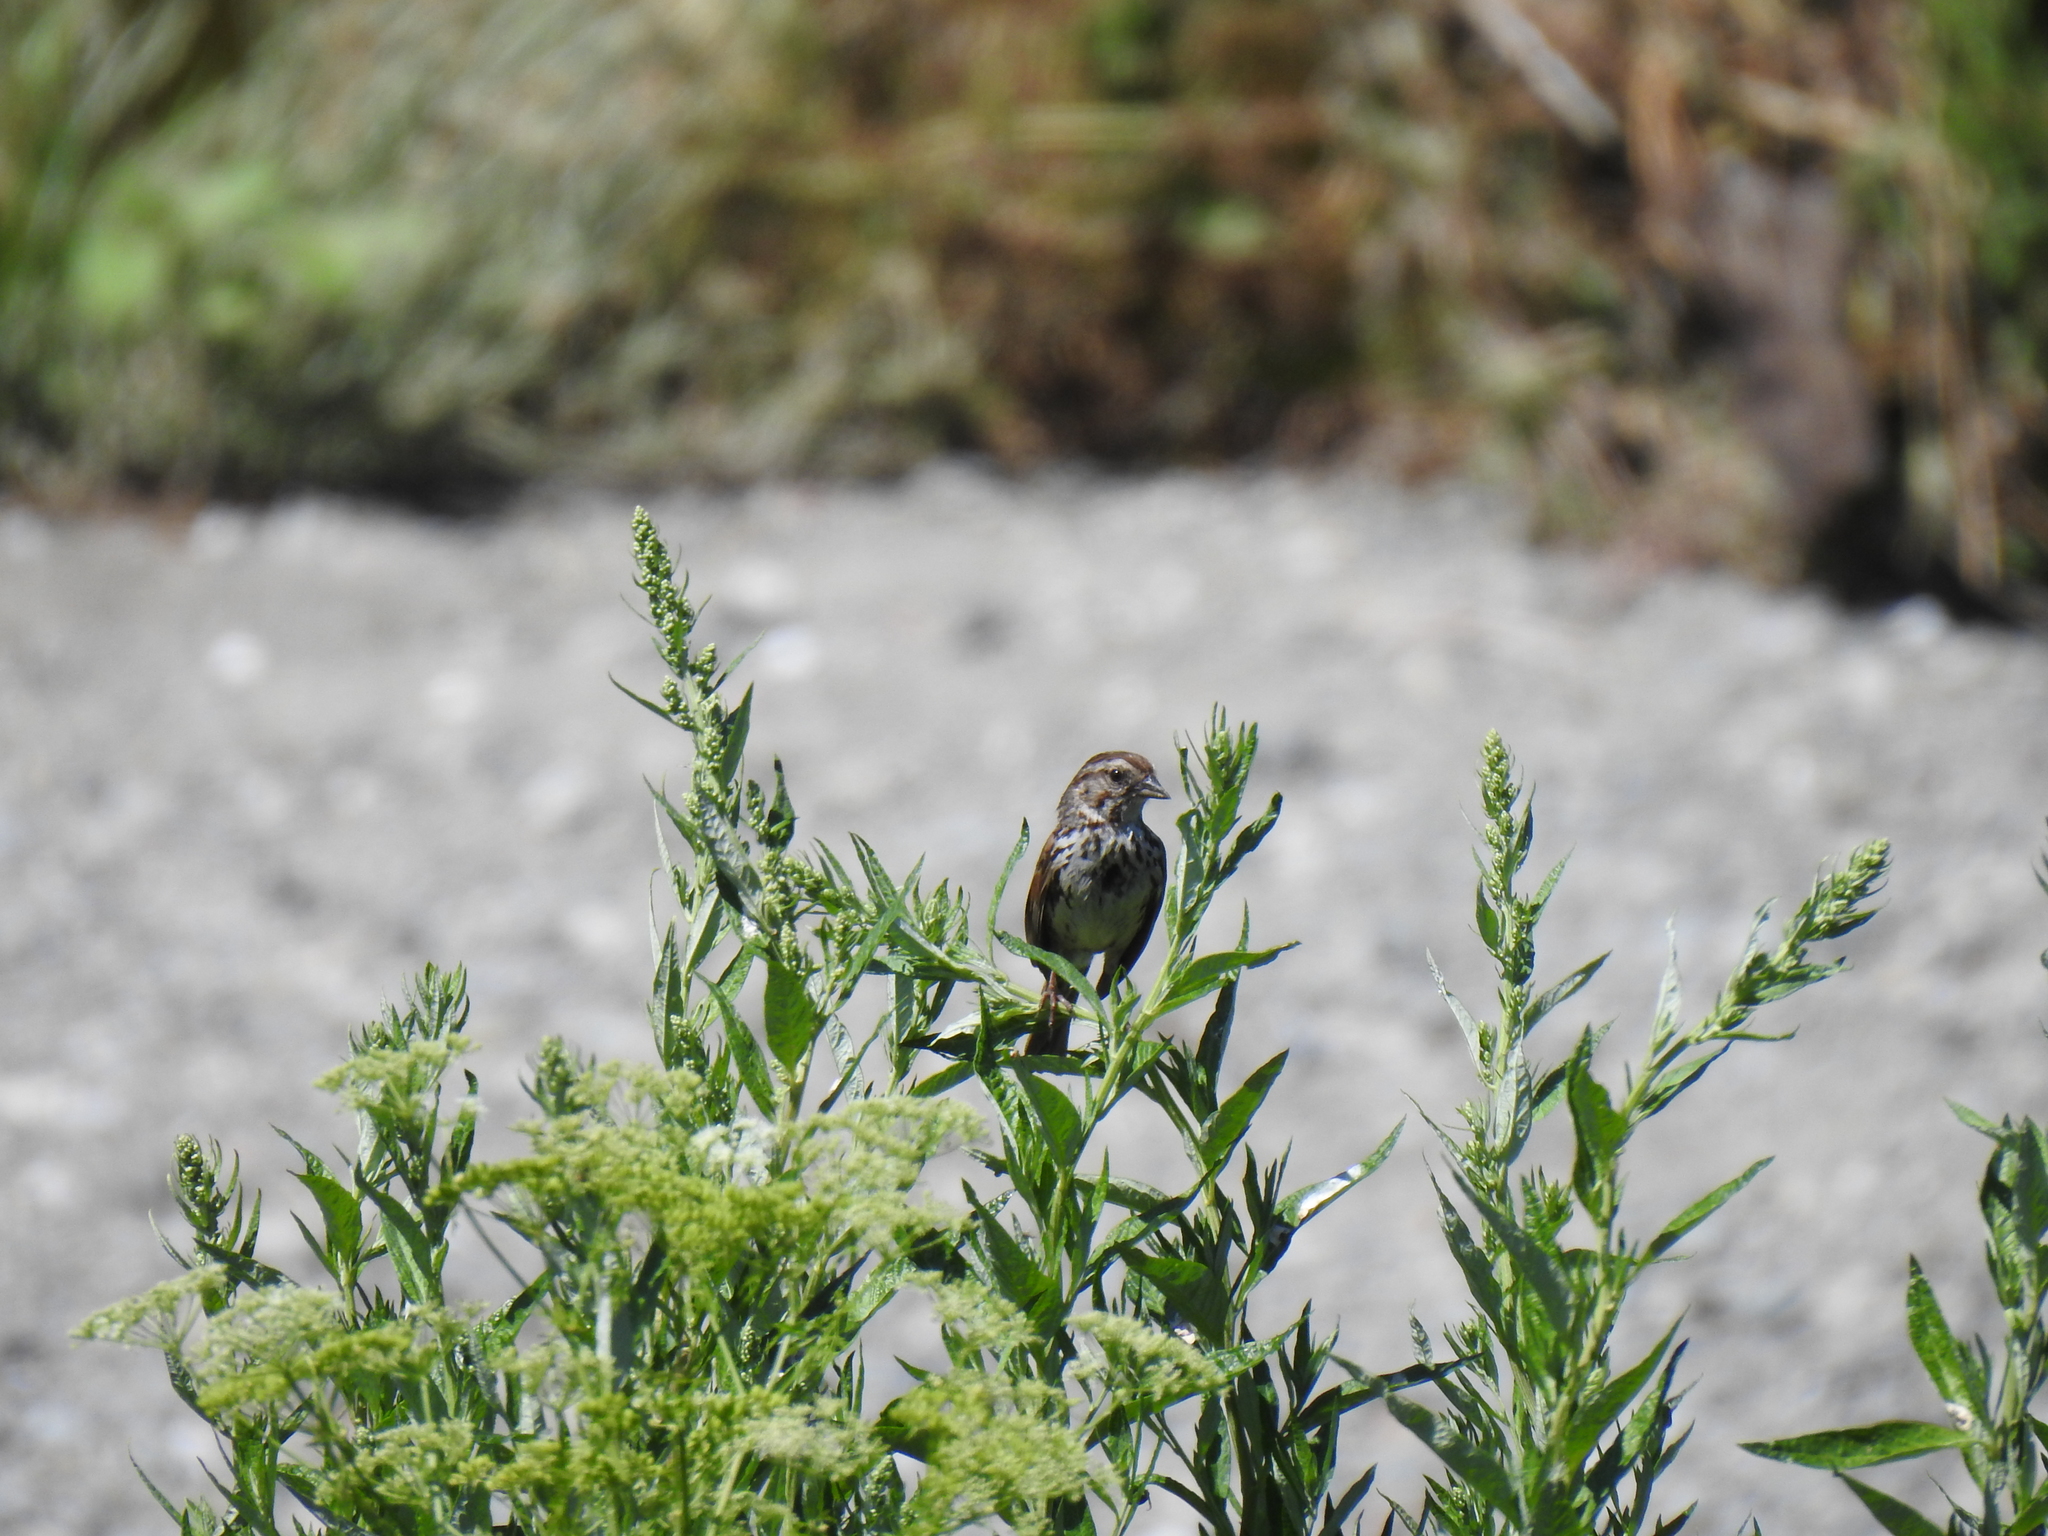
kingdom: Animalia
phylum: Chordata
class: Aves
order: Passeriformes
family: Passerellidae
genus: Melospiza
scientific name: Melospiza melodia
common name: Song sparrow
